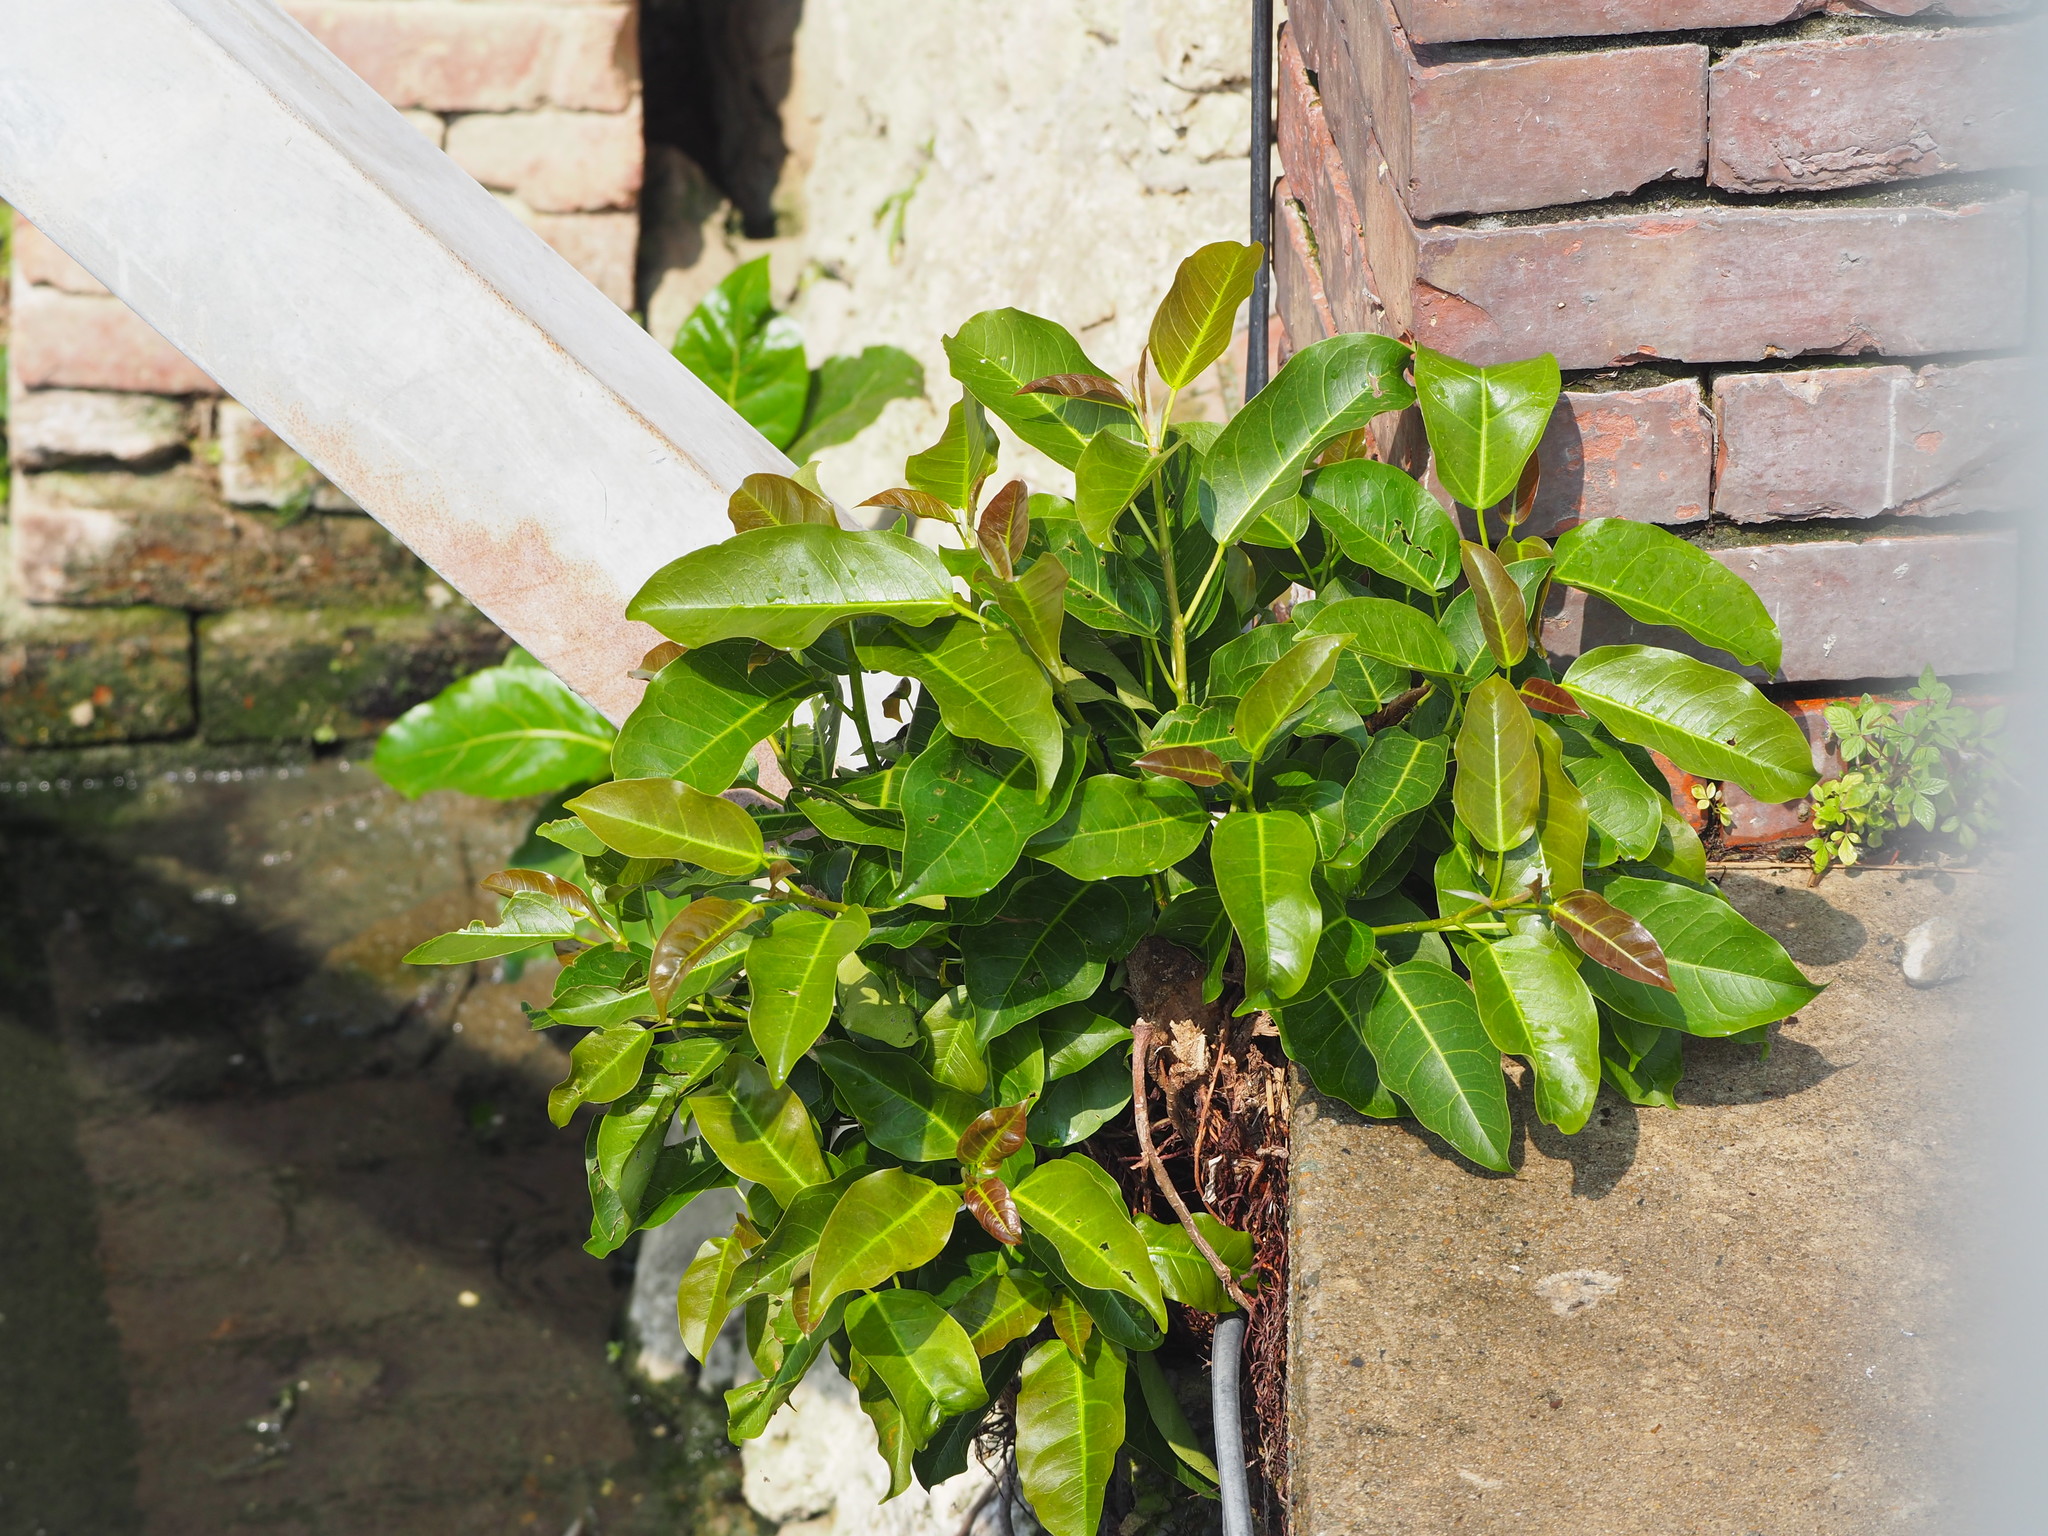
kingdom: Plantae
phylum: Tracheophyta
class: Magnoliopsida
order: Rosales
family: Moraceae
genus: Ficus
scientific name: Ficus subpisocarpa
